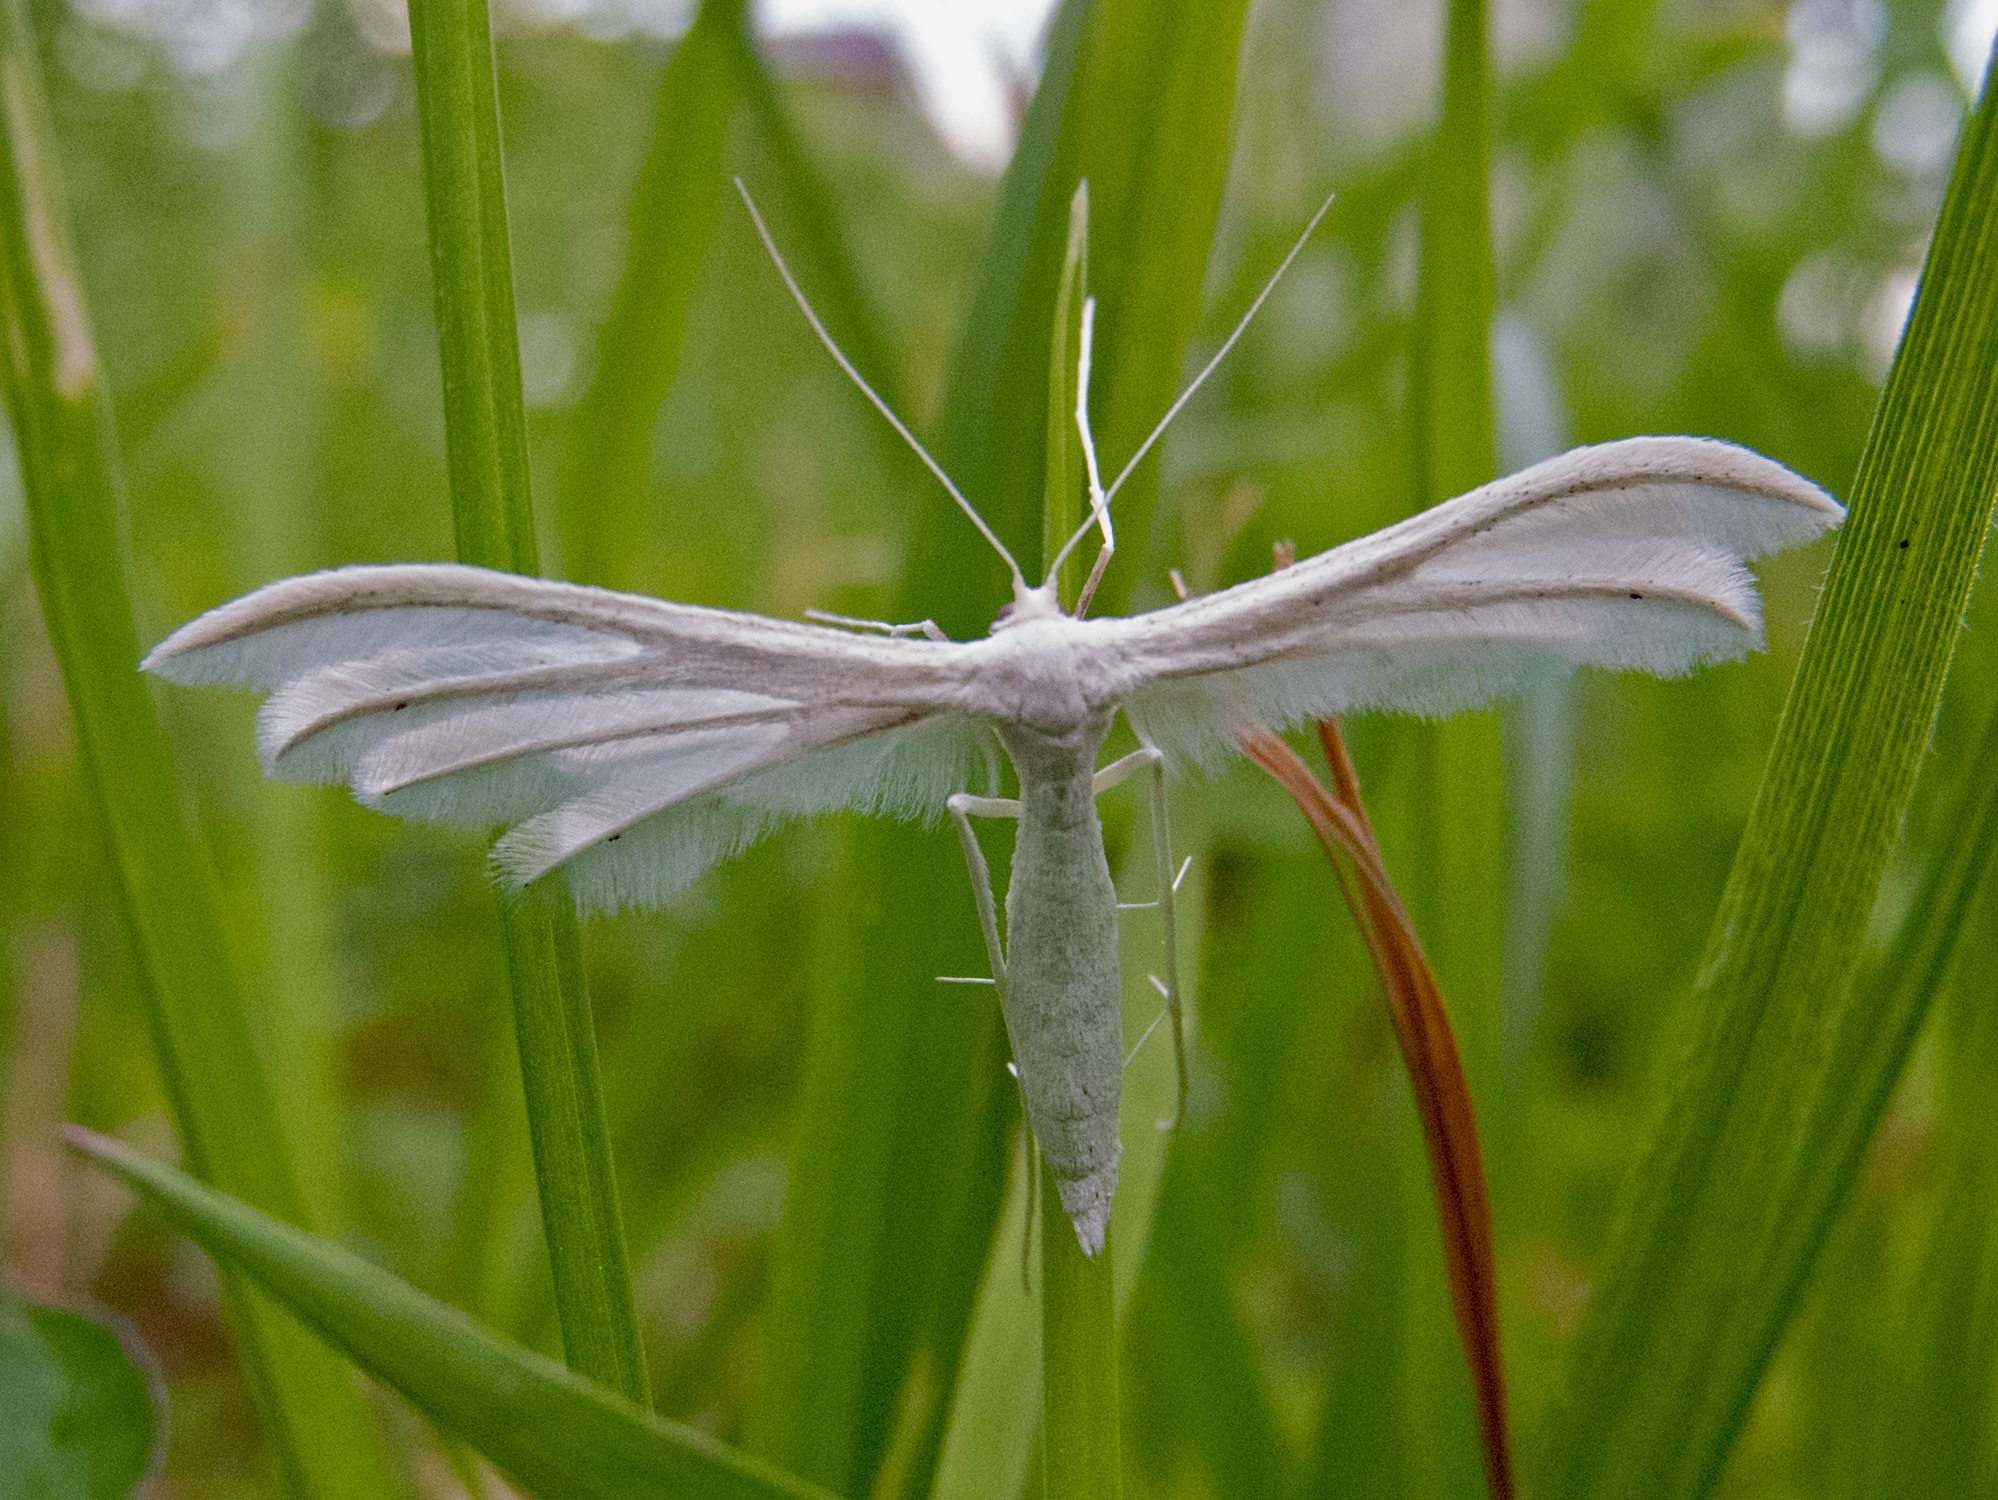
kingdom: Animalia
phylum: Arthropoda
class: Insecta
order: Lepidoptera
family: Pterophoridae
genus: Pterophorus
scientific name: Pterophorus pentadactyla
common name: White plume moth
